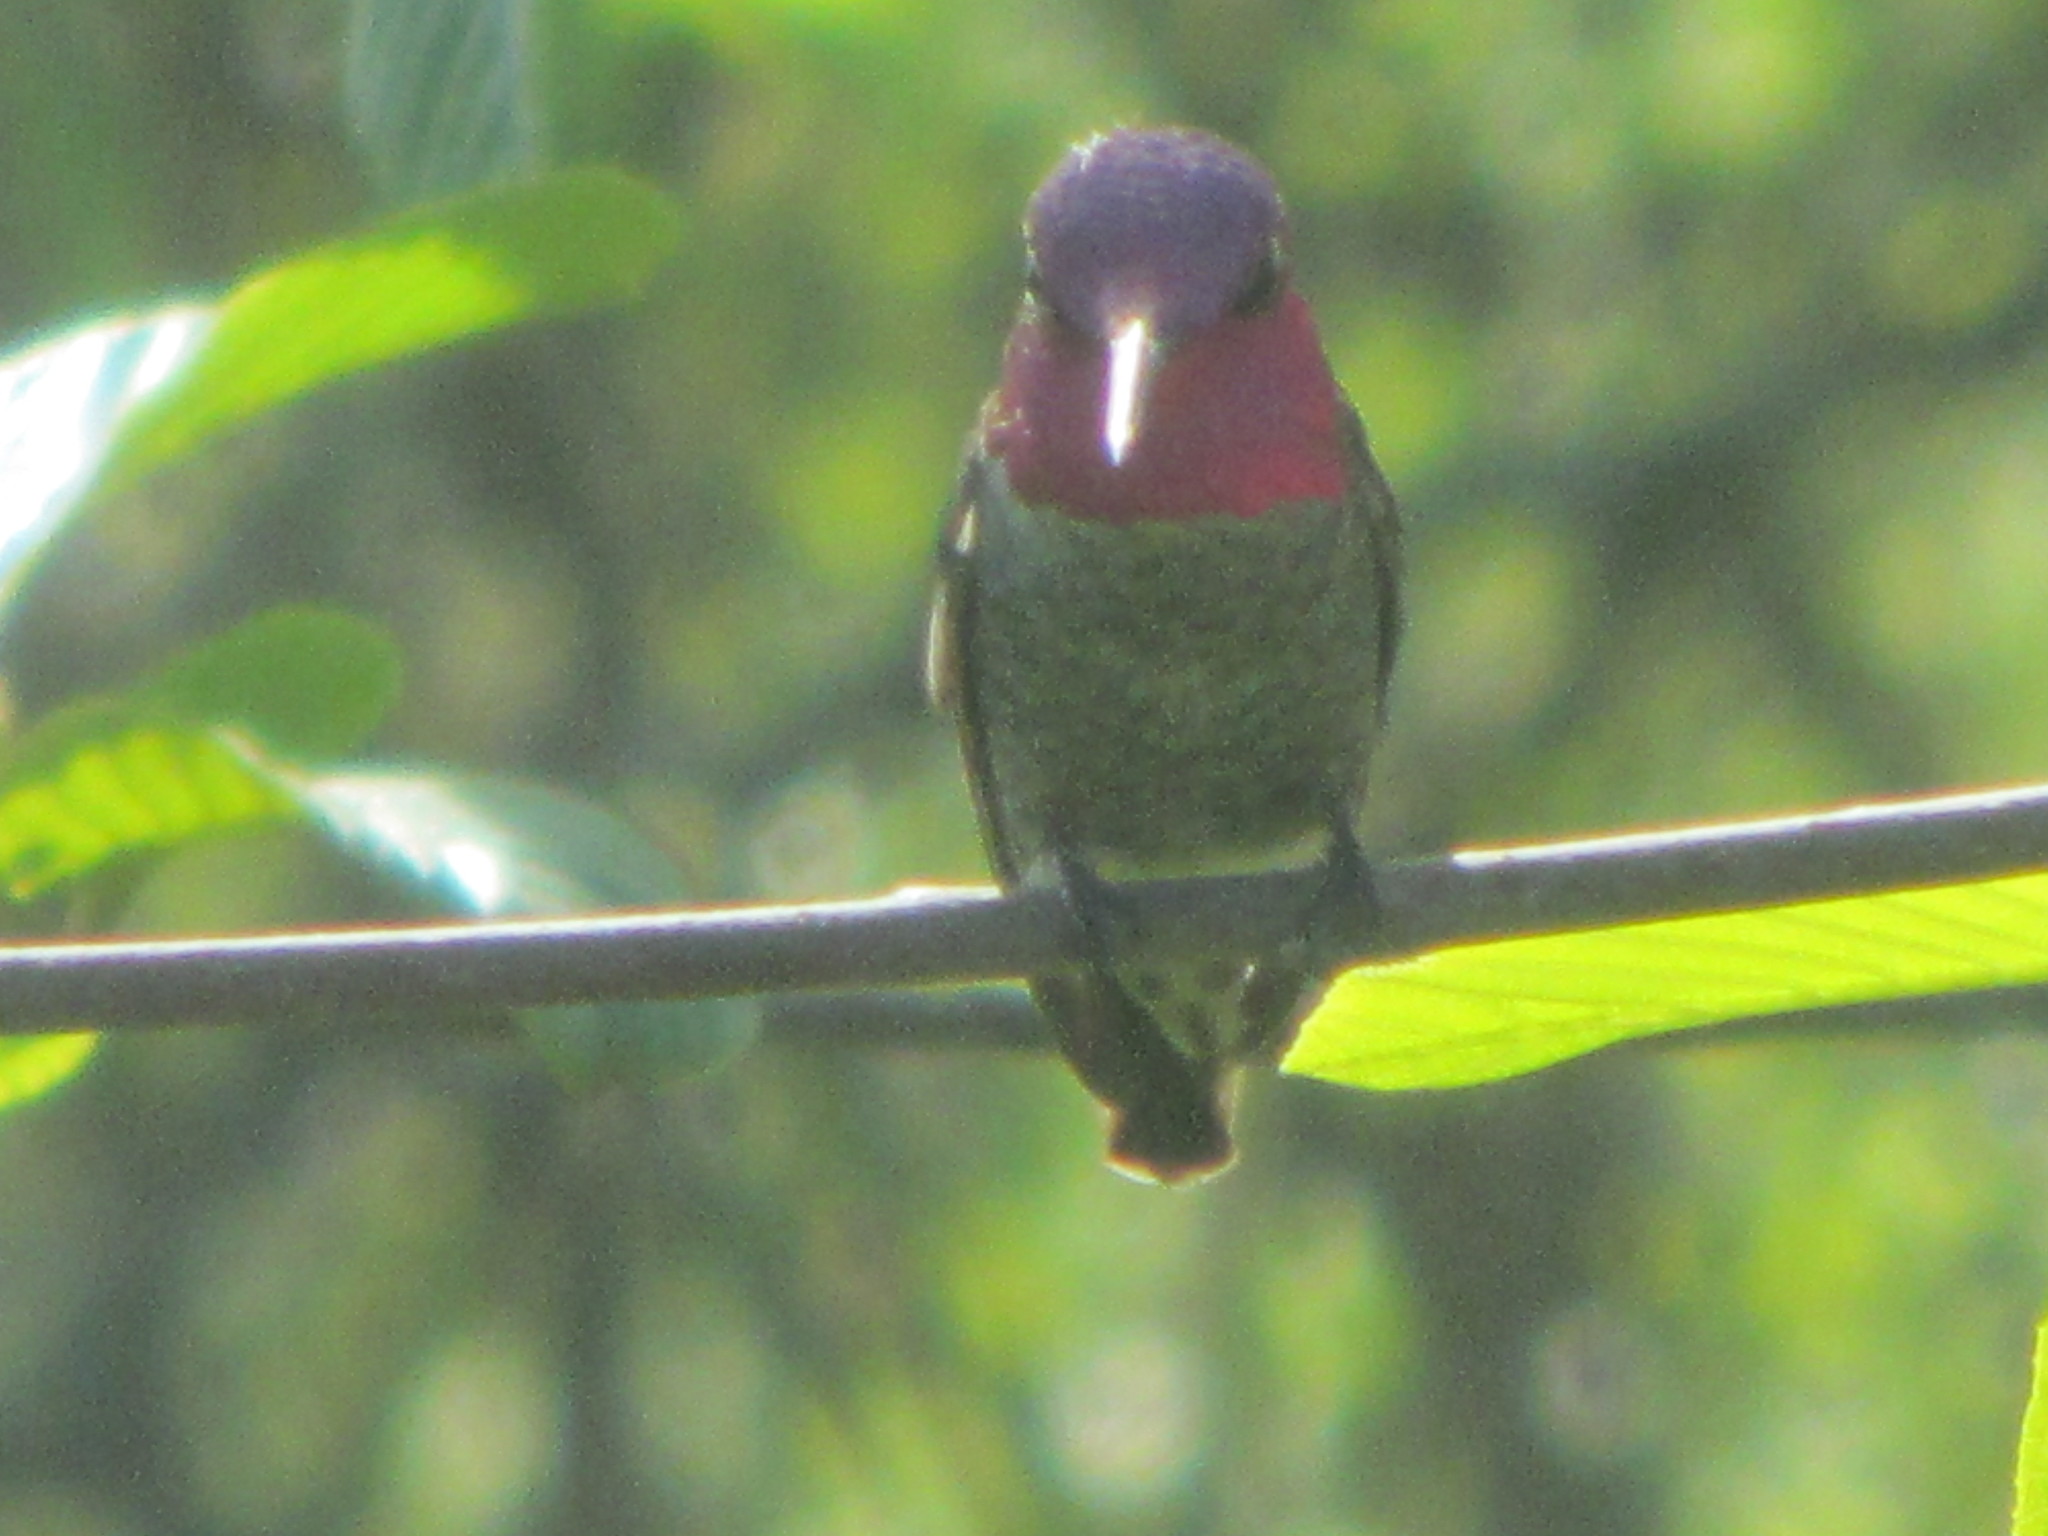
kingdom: Animalia
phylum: Chordata
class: Aves
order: Apodiformes
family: Trochilidae
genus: Calypte
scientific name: Calypte anna
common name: Anna's hummingbird
